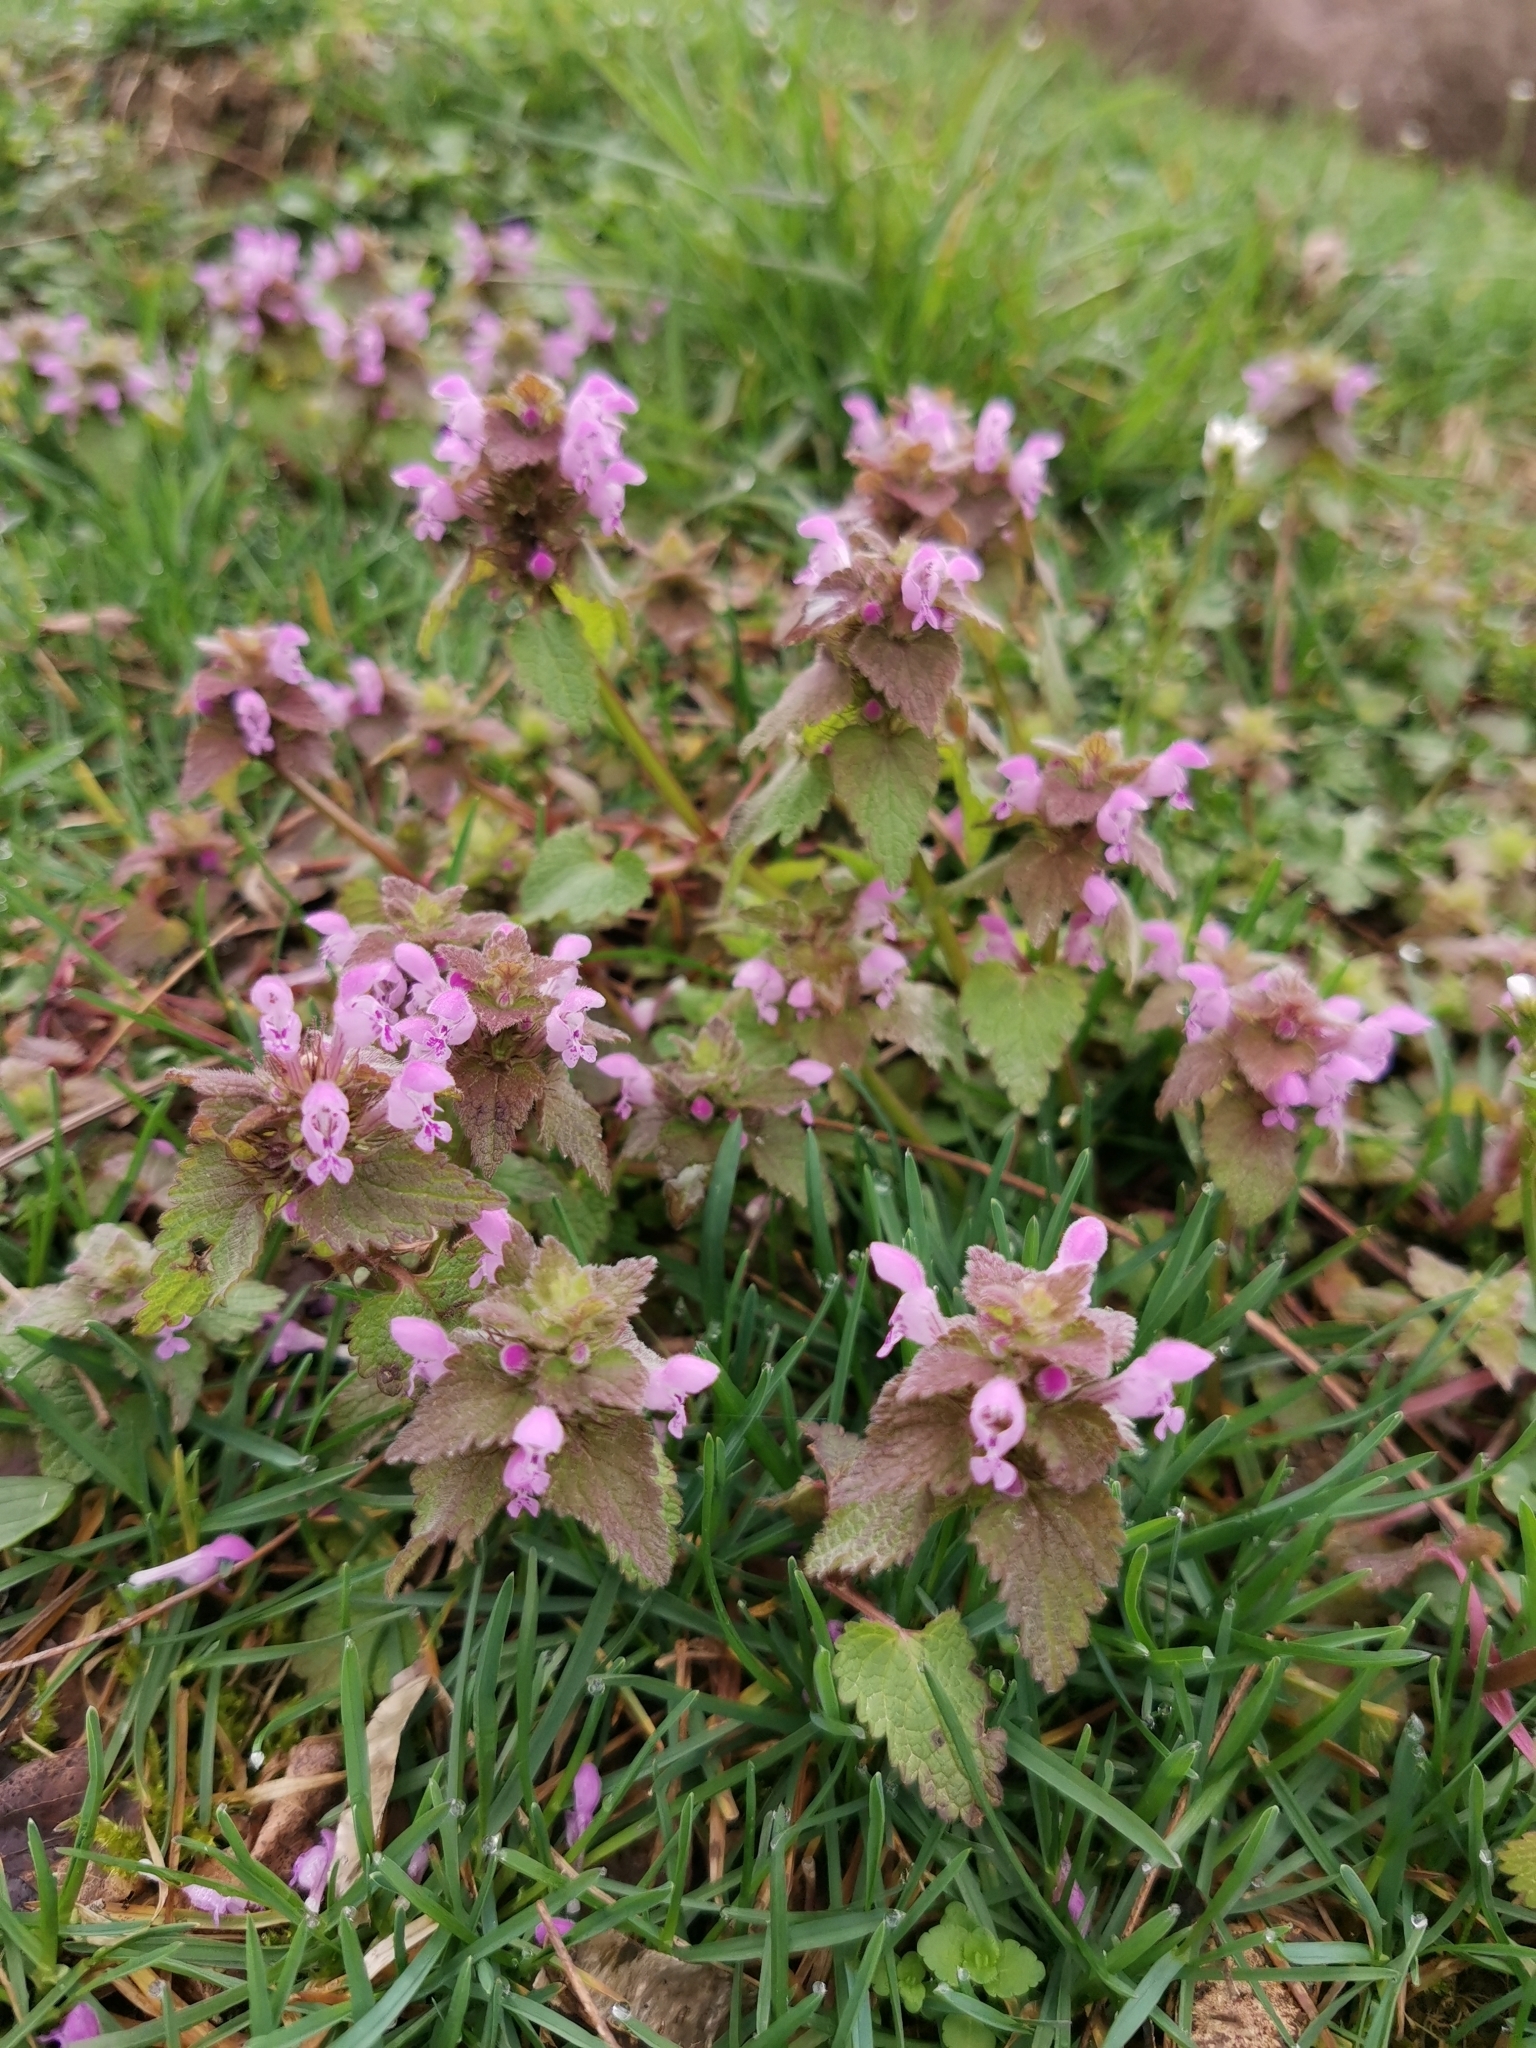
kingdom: Plantae
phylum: Tracheophyta
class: Magnoliopsida
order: Lamiales
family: Lamiaceae
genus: Lamium
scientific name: Lamium purpureum
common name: Red dead-nettle
